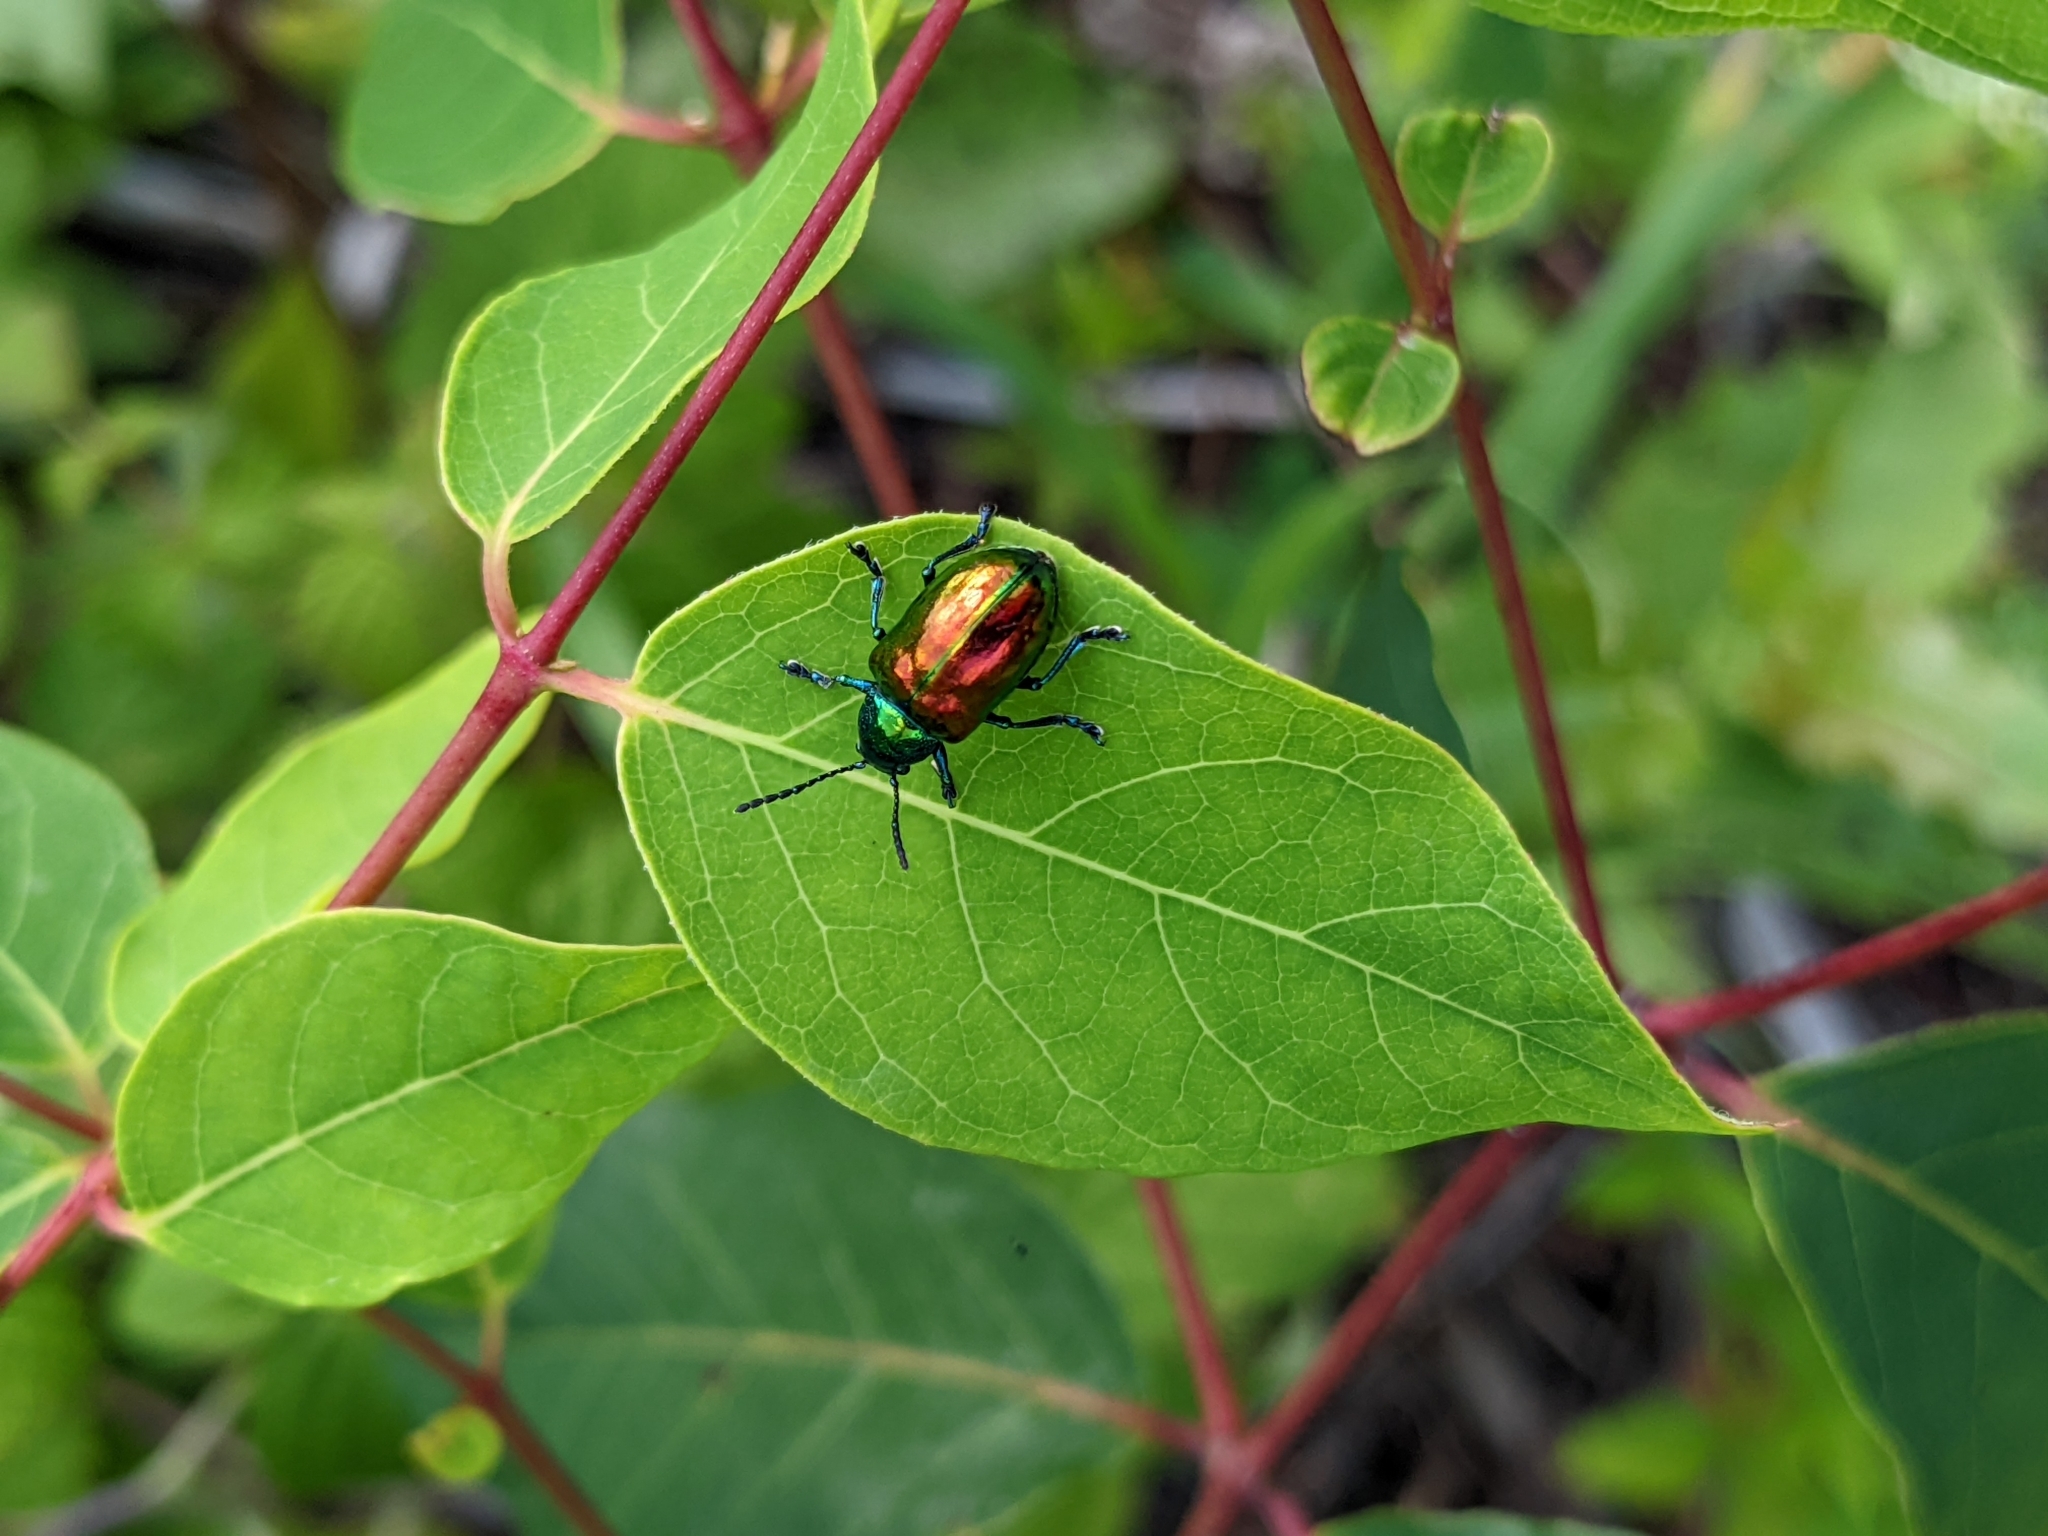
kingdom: Animalia
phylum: Arthropoda
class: Insecta
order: Coleoptera
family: Chrysomelidae
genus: Chrysochus
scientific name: Chrysochus auratus
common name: Dogbane leaf beetle
